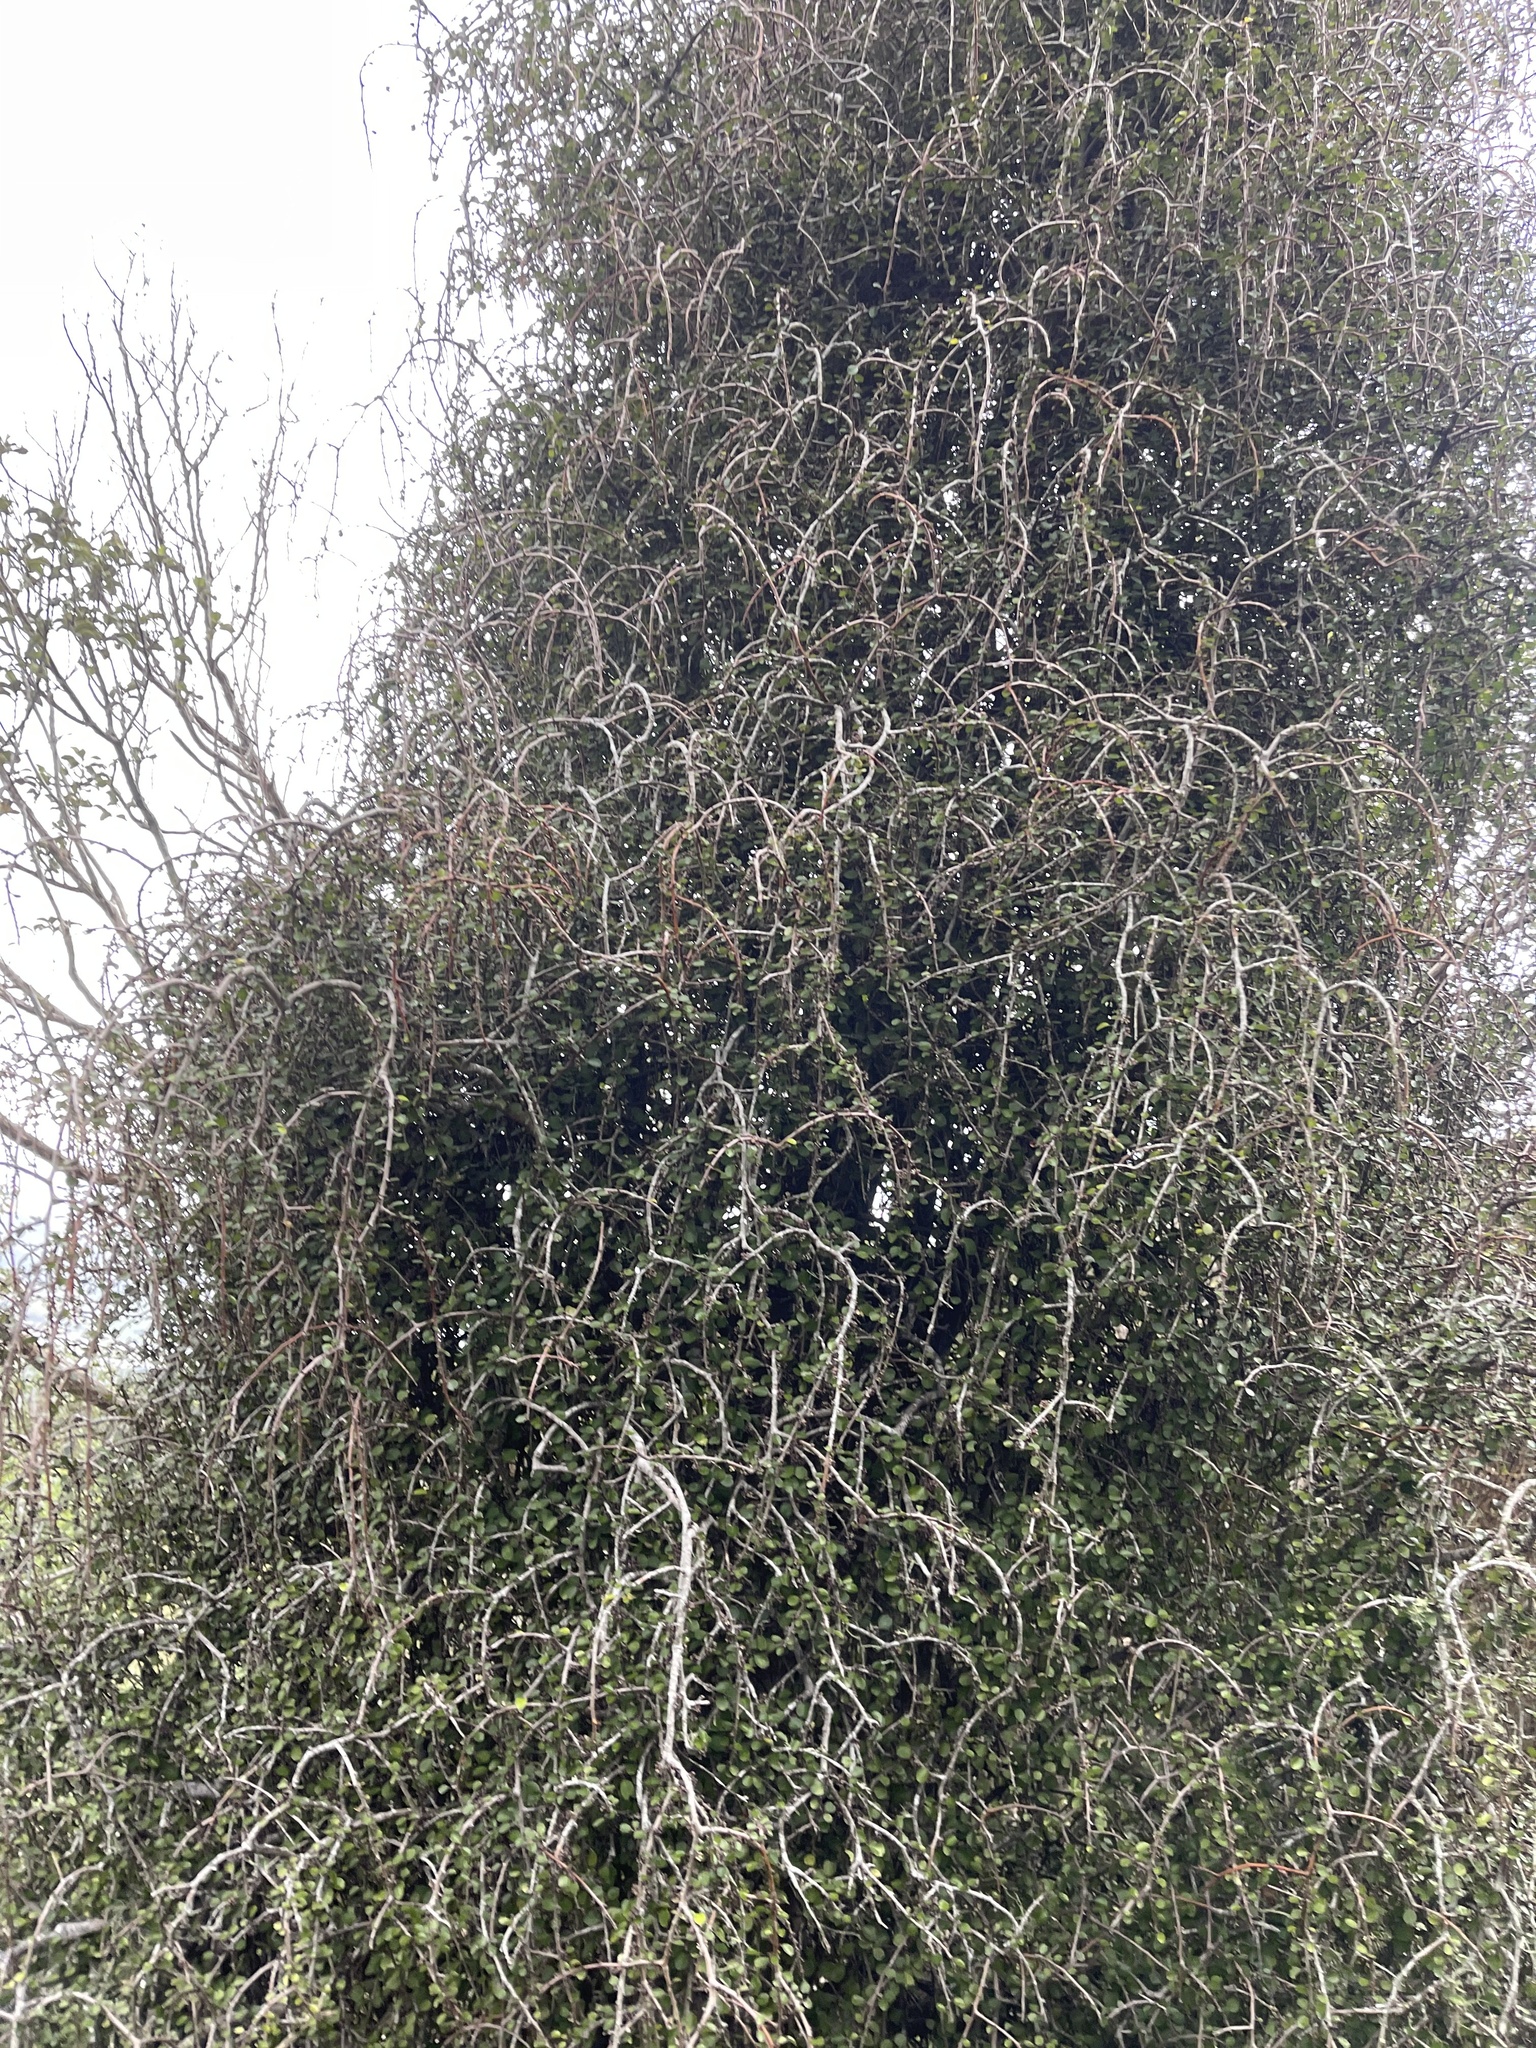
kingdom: Plantae
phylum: Tracheophyta
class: Magnoliopsida
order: Ericales
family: Primulaceae
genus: Myrsine
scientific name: Myrsine divaricata
